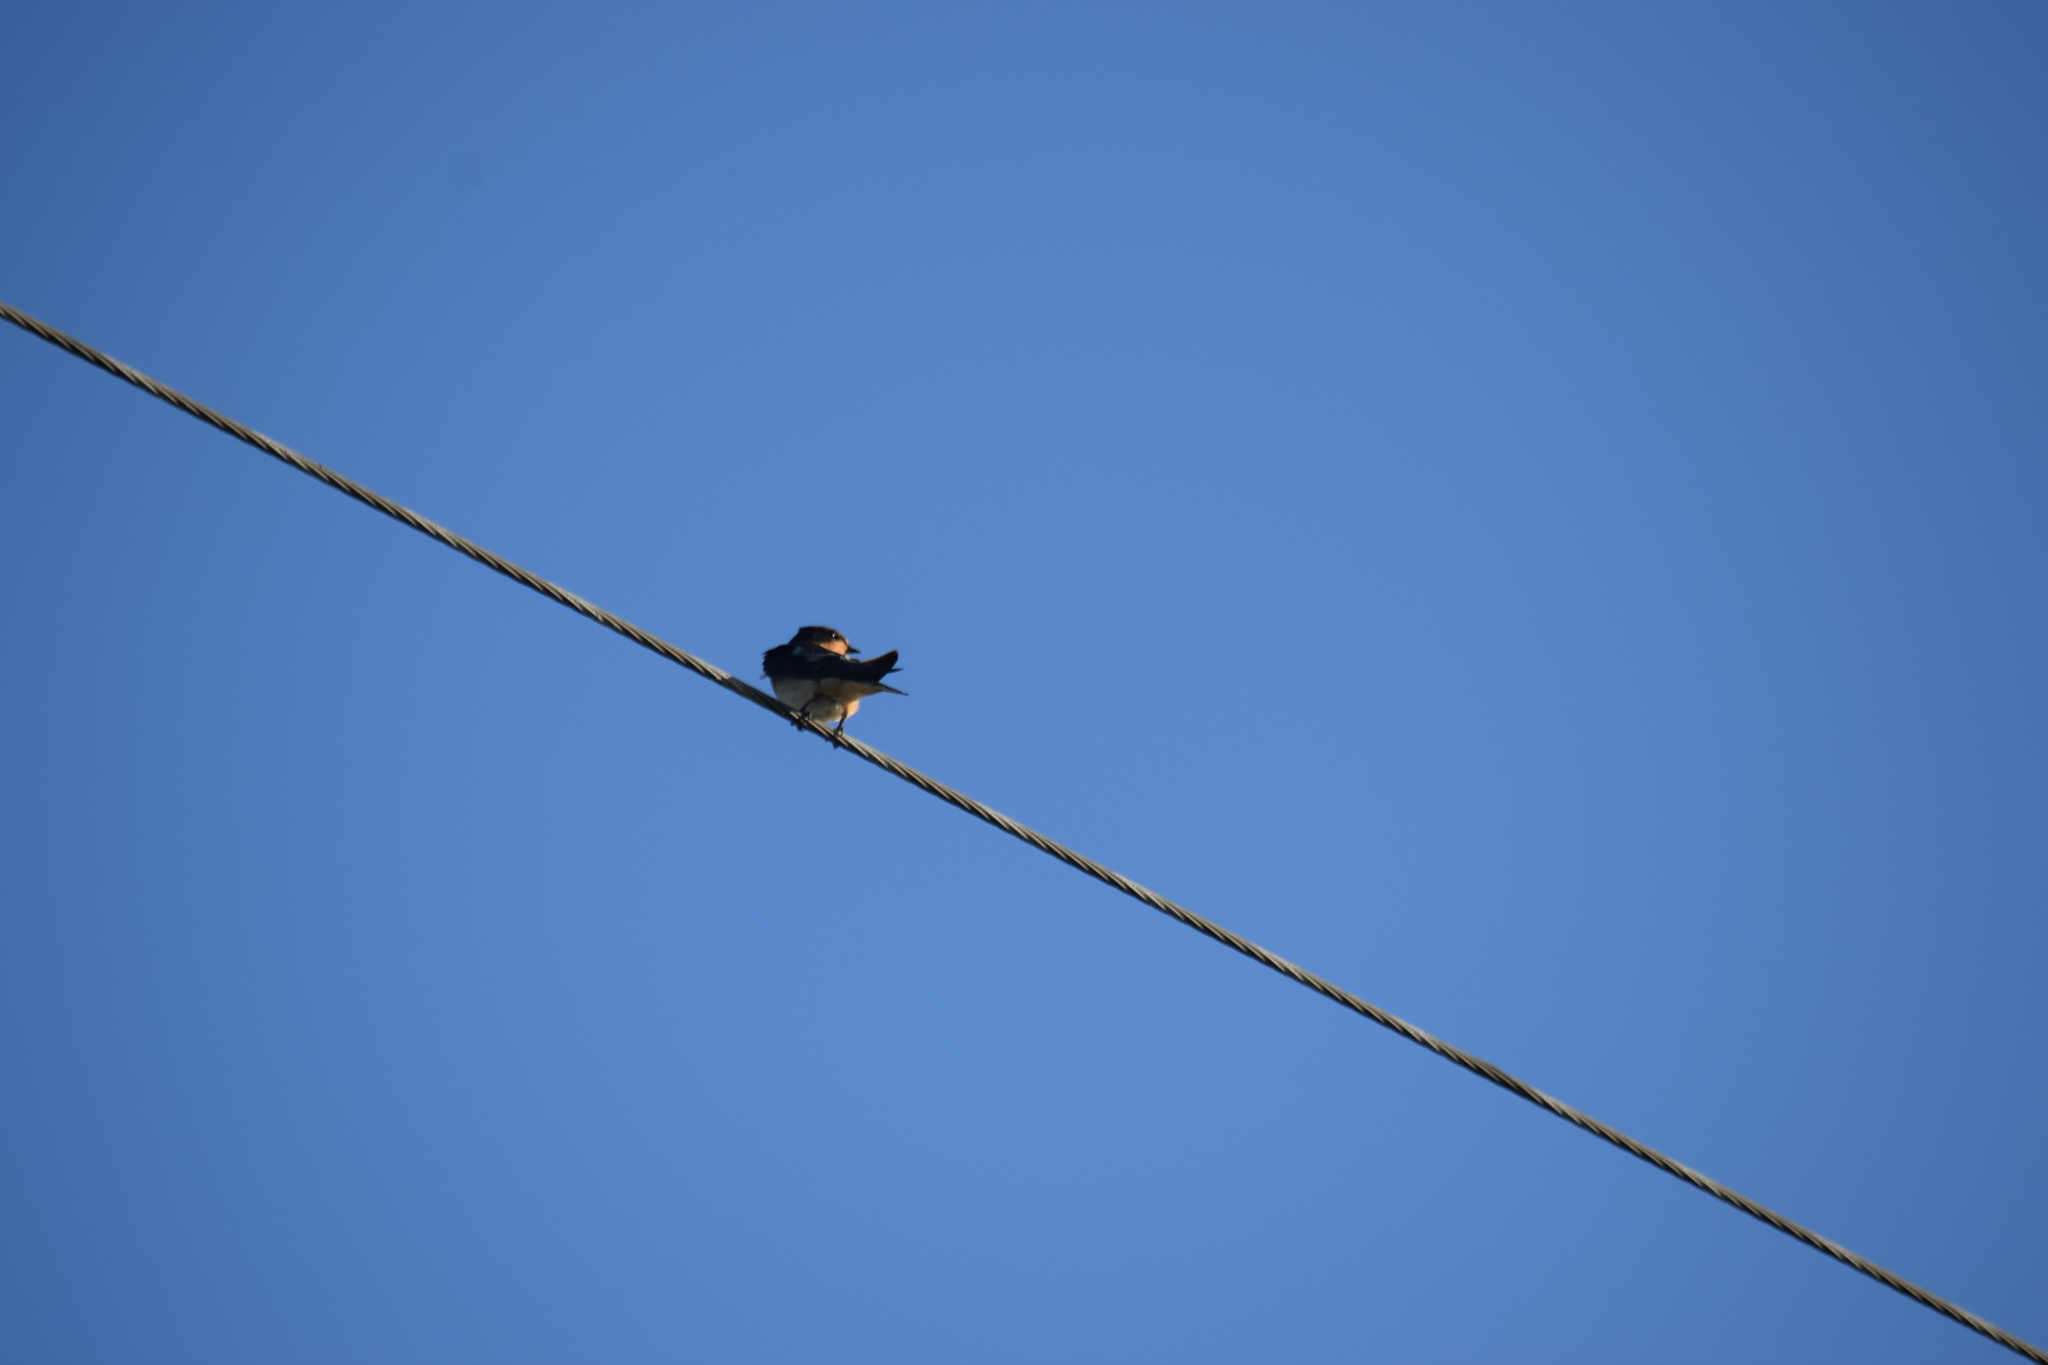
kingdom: Animalia
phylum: Chordata
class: Aves
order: Passeriformes
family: Hirundinidae
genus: Hirundo
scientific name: Hirundo rustica
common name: Barn swallow
